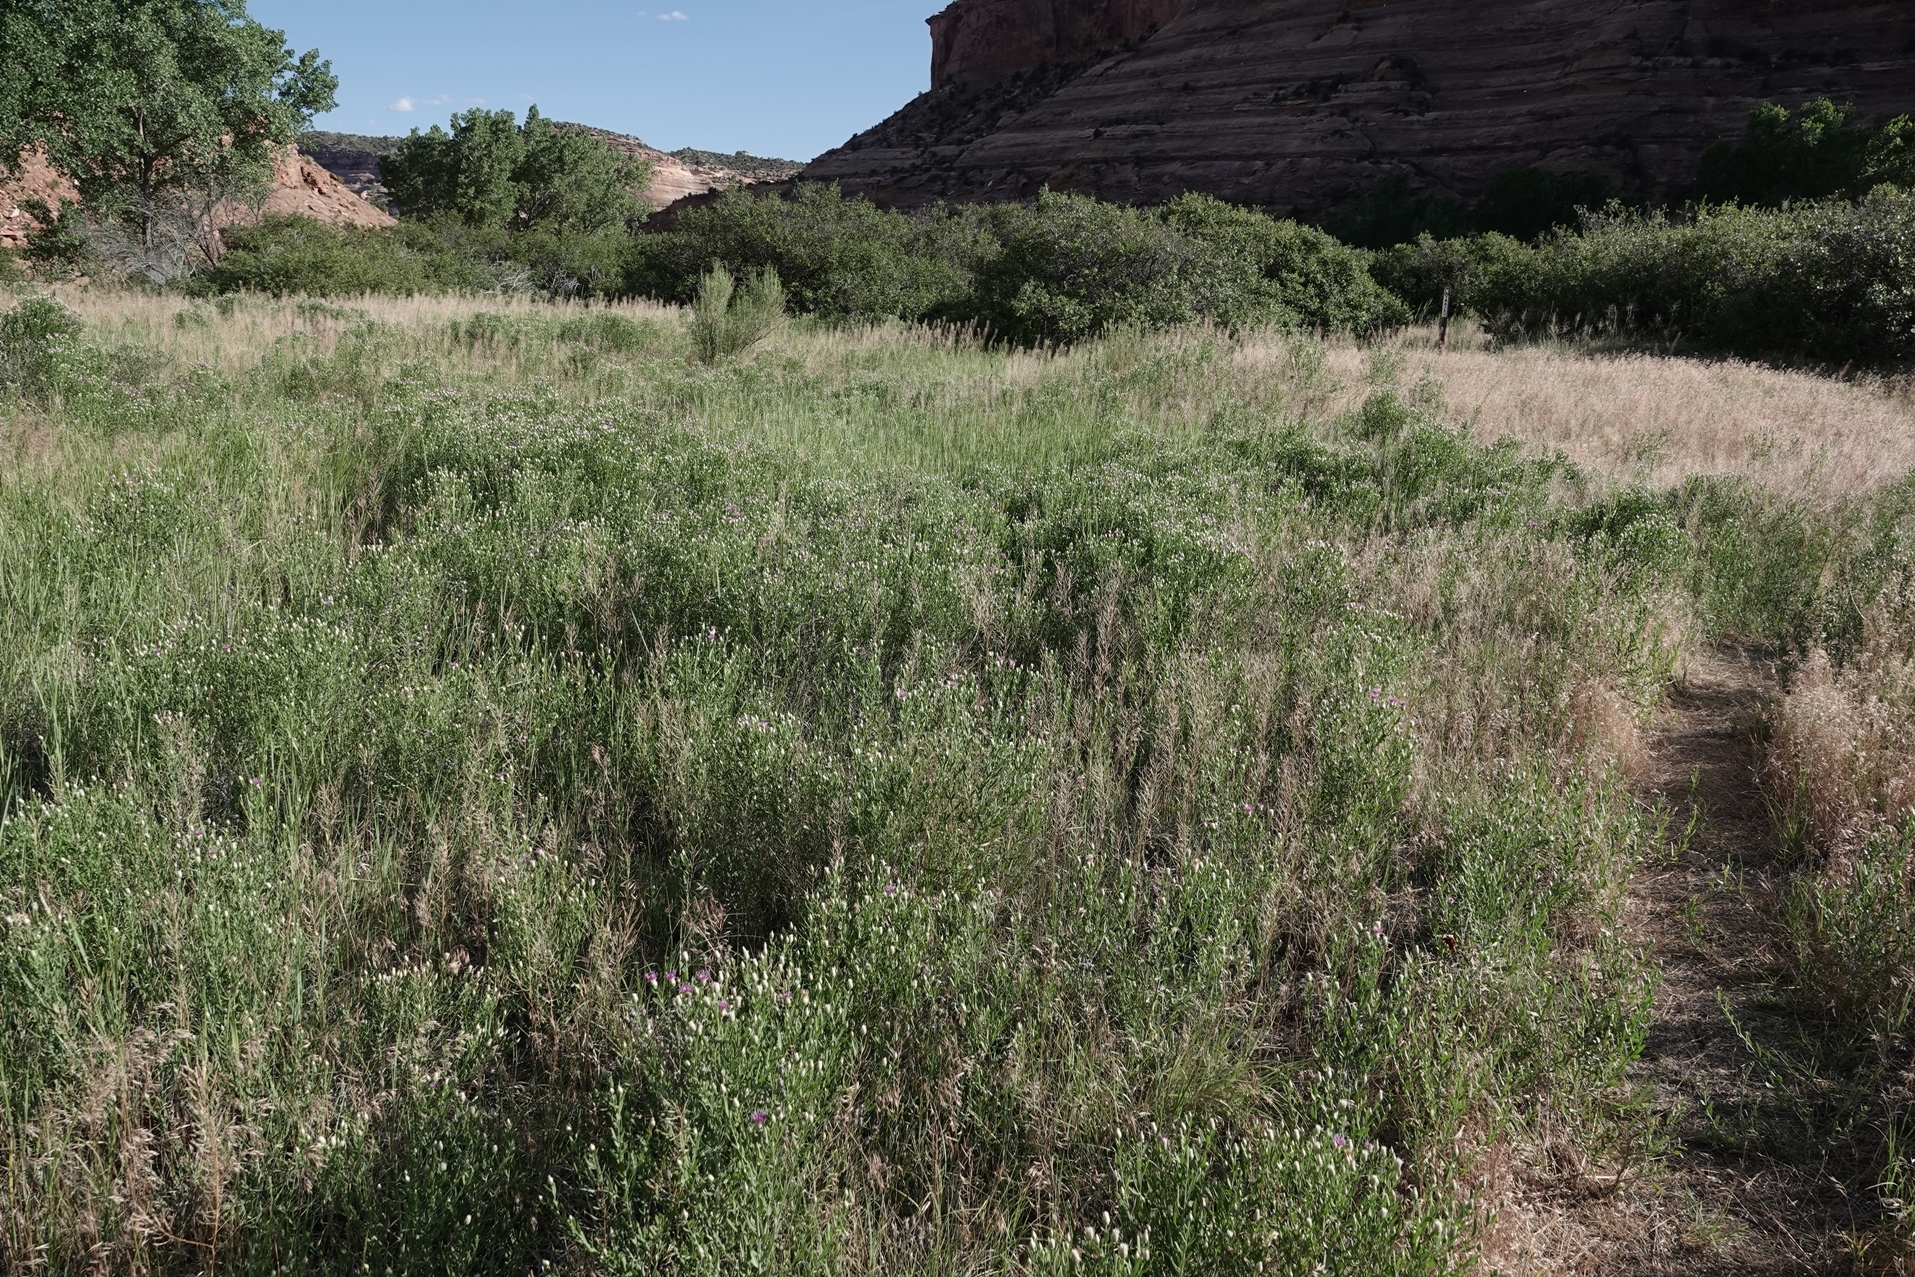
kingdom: Plantae
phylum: Tracheophyta
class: Magnoliopsida
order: Asterales
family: Asteraceae
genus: Leuzea
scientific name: Leuzea repens
